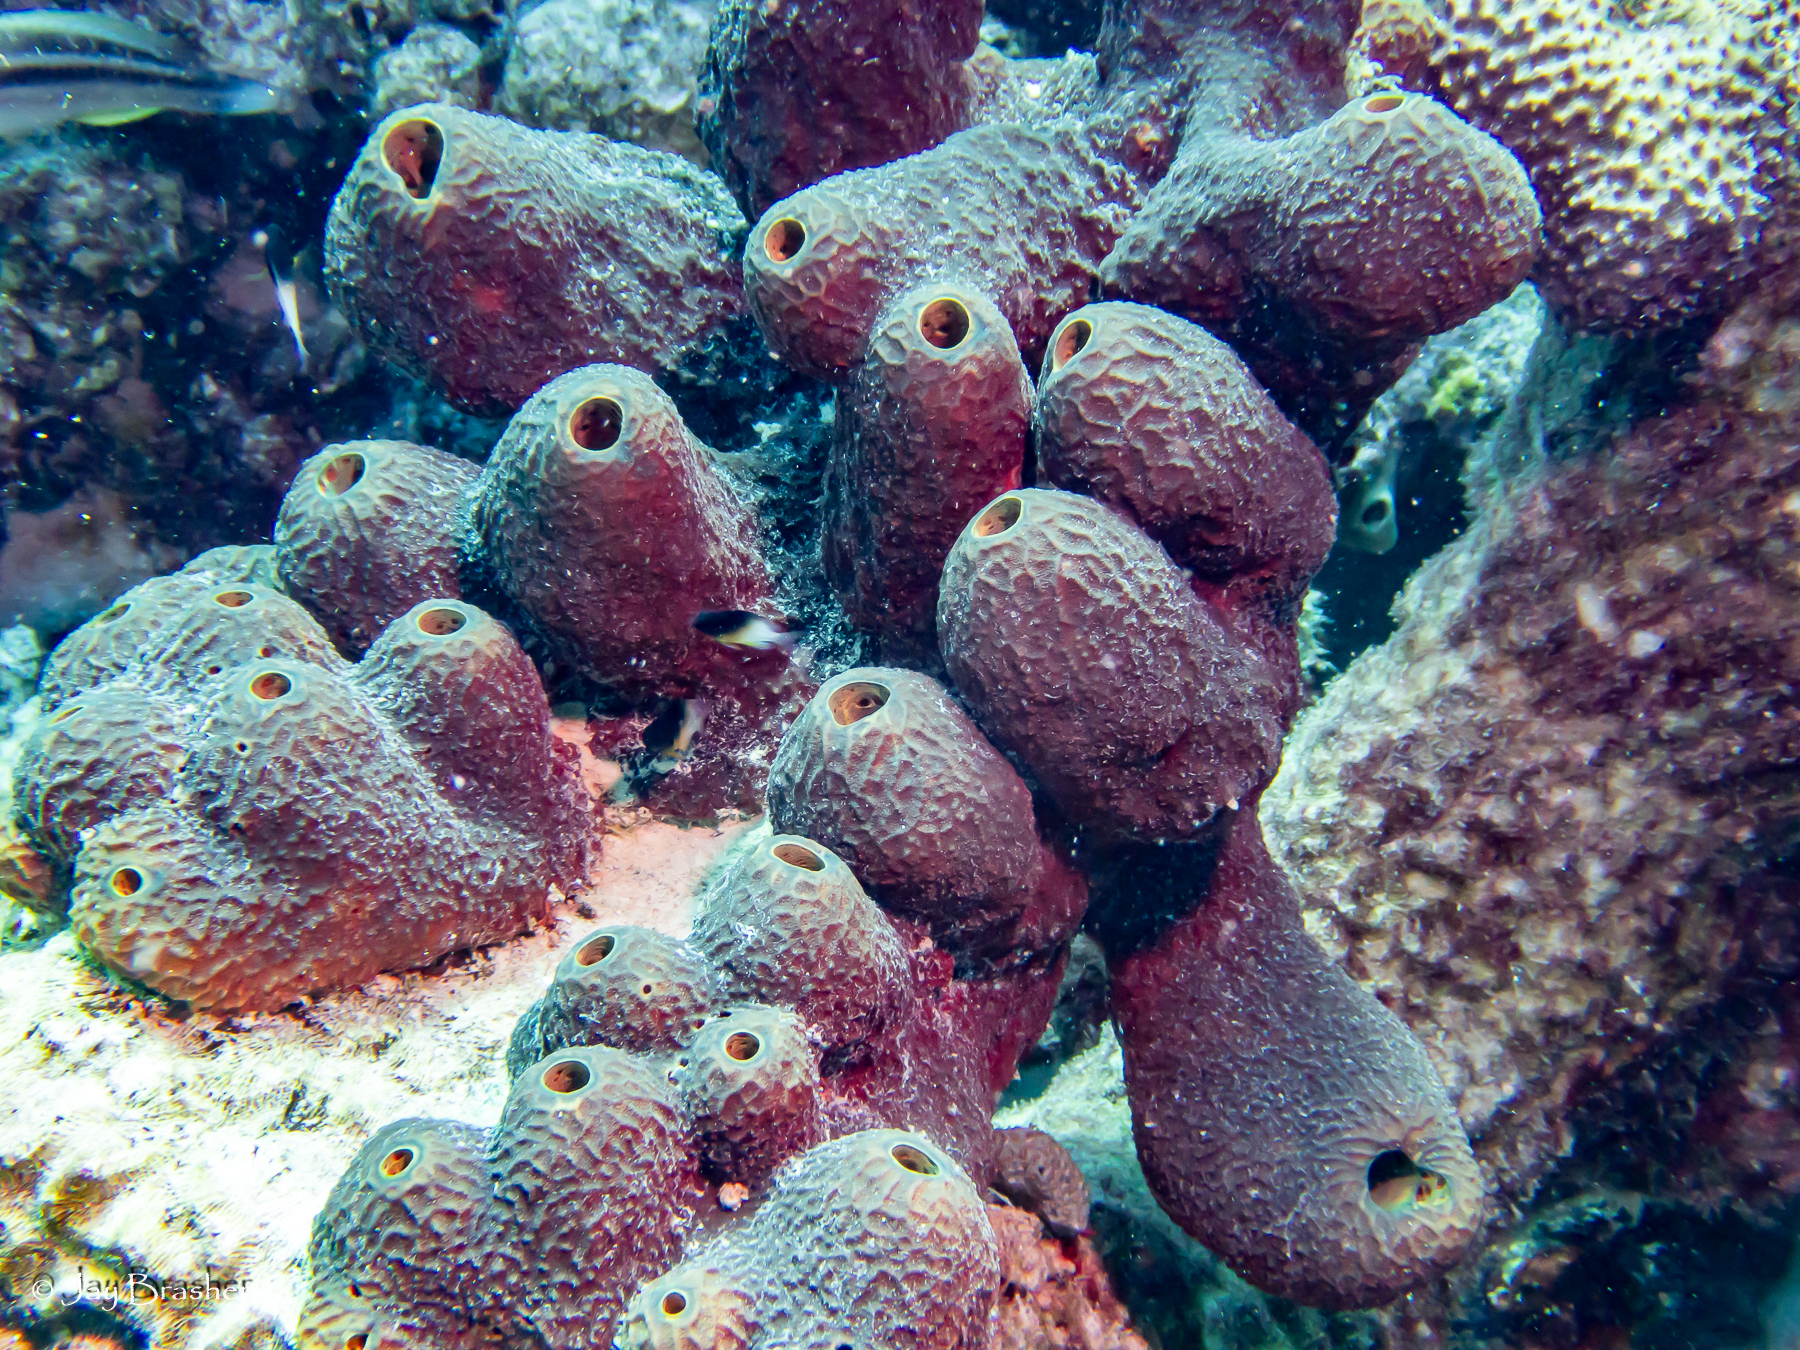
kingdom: Animalia
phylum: Porifera
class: Demospongiae
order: Verongiida
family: Aplysinidae
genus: Verongula
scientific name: Verongula reiswigi
